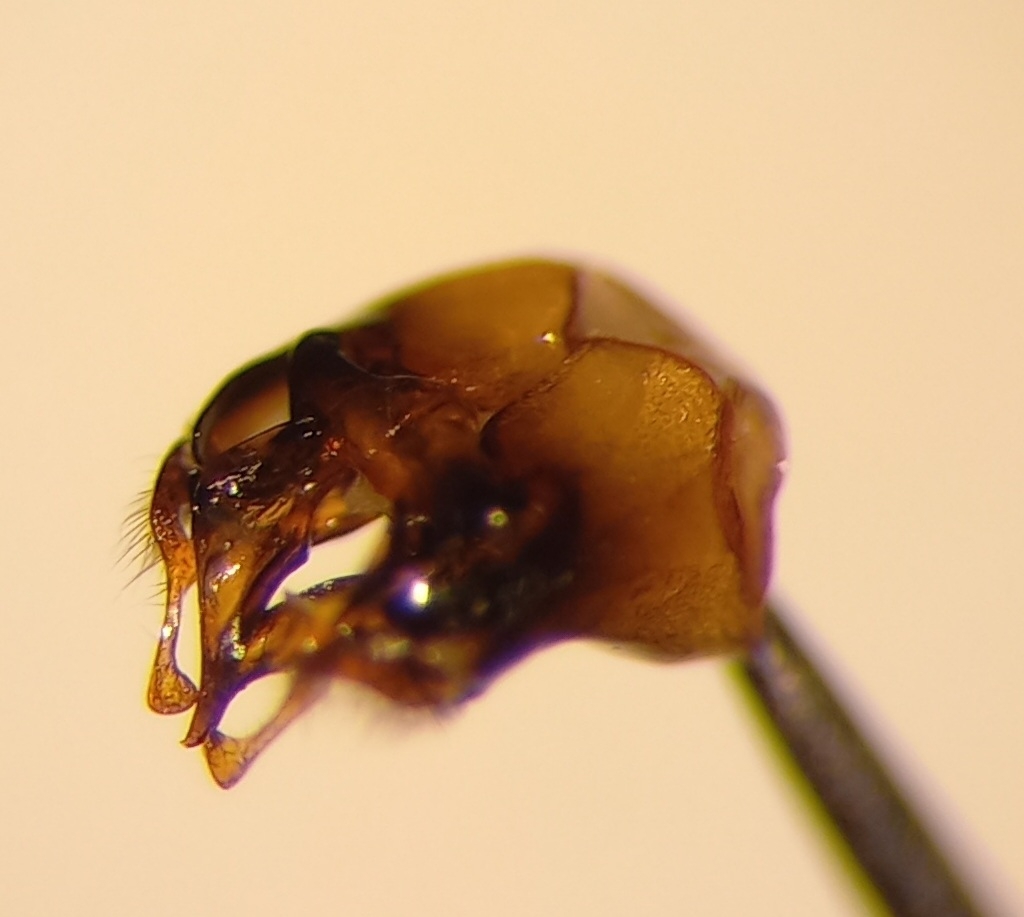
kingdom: Animalia
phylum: Arthropoda
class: Insecta
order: Hymenoptera
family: Apidae
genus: Eucera
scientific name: Eucera nigrescens
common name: Tuberculate long-horned bee
